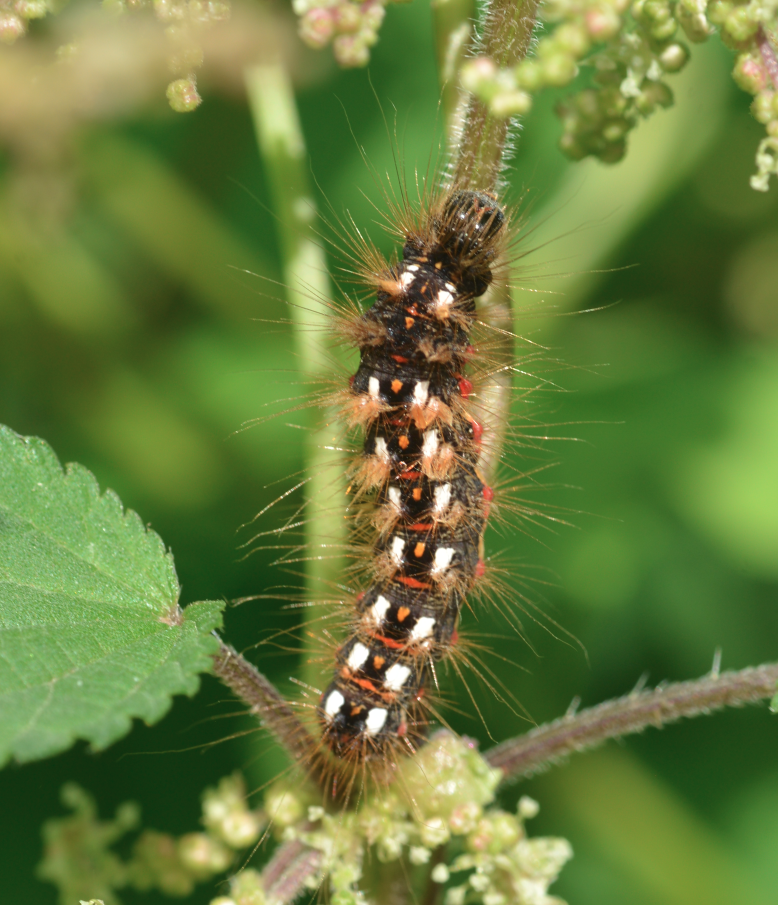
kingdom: Animalia
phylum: Arthropoda
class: Insecta
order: Lepidoptera
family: Noctuidae
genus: Acronicta
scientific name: Acronicta rumicis
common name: Knot grass
